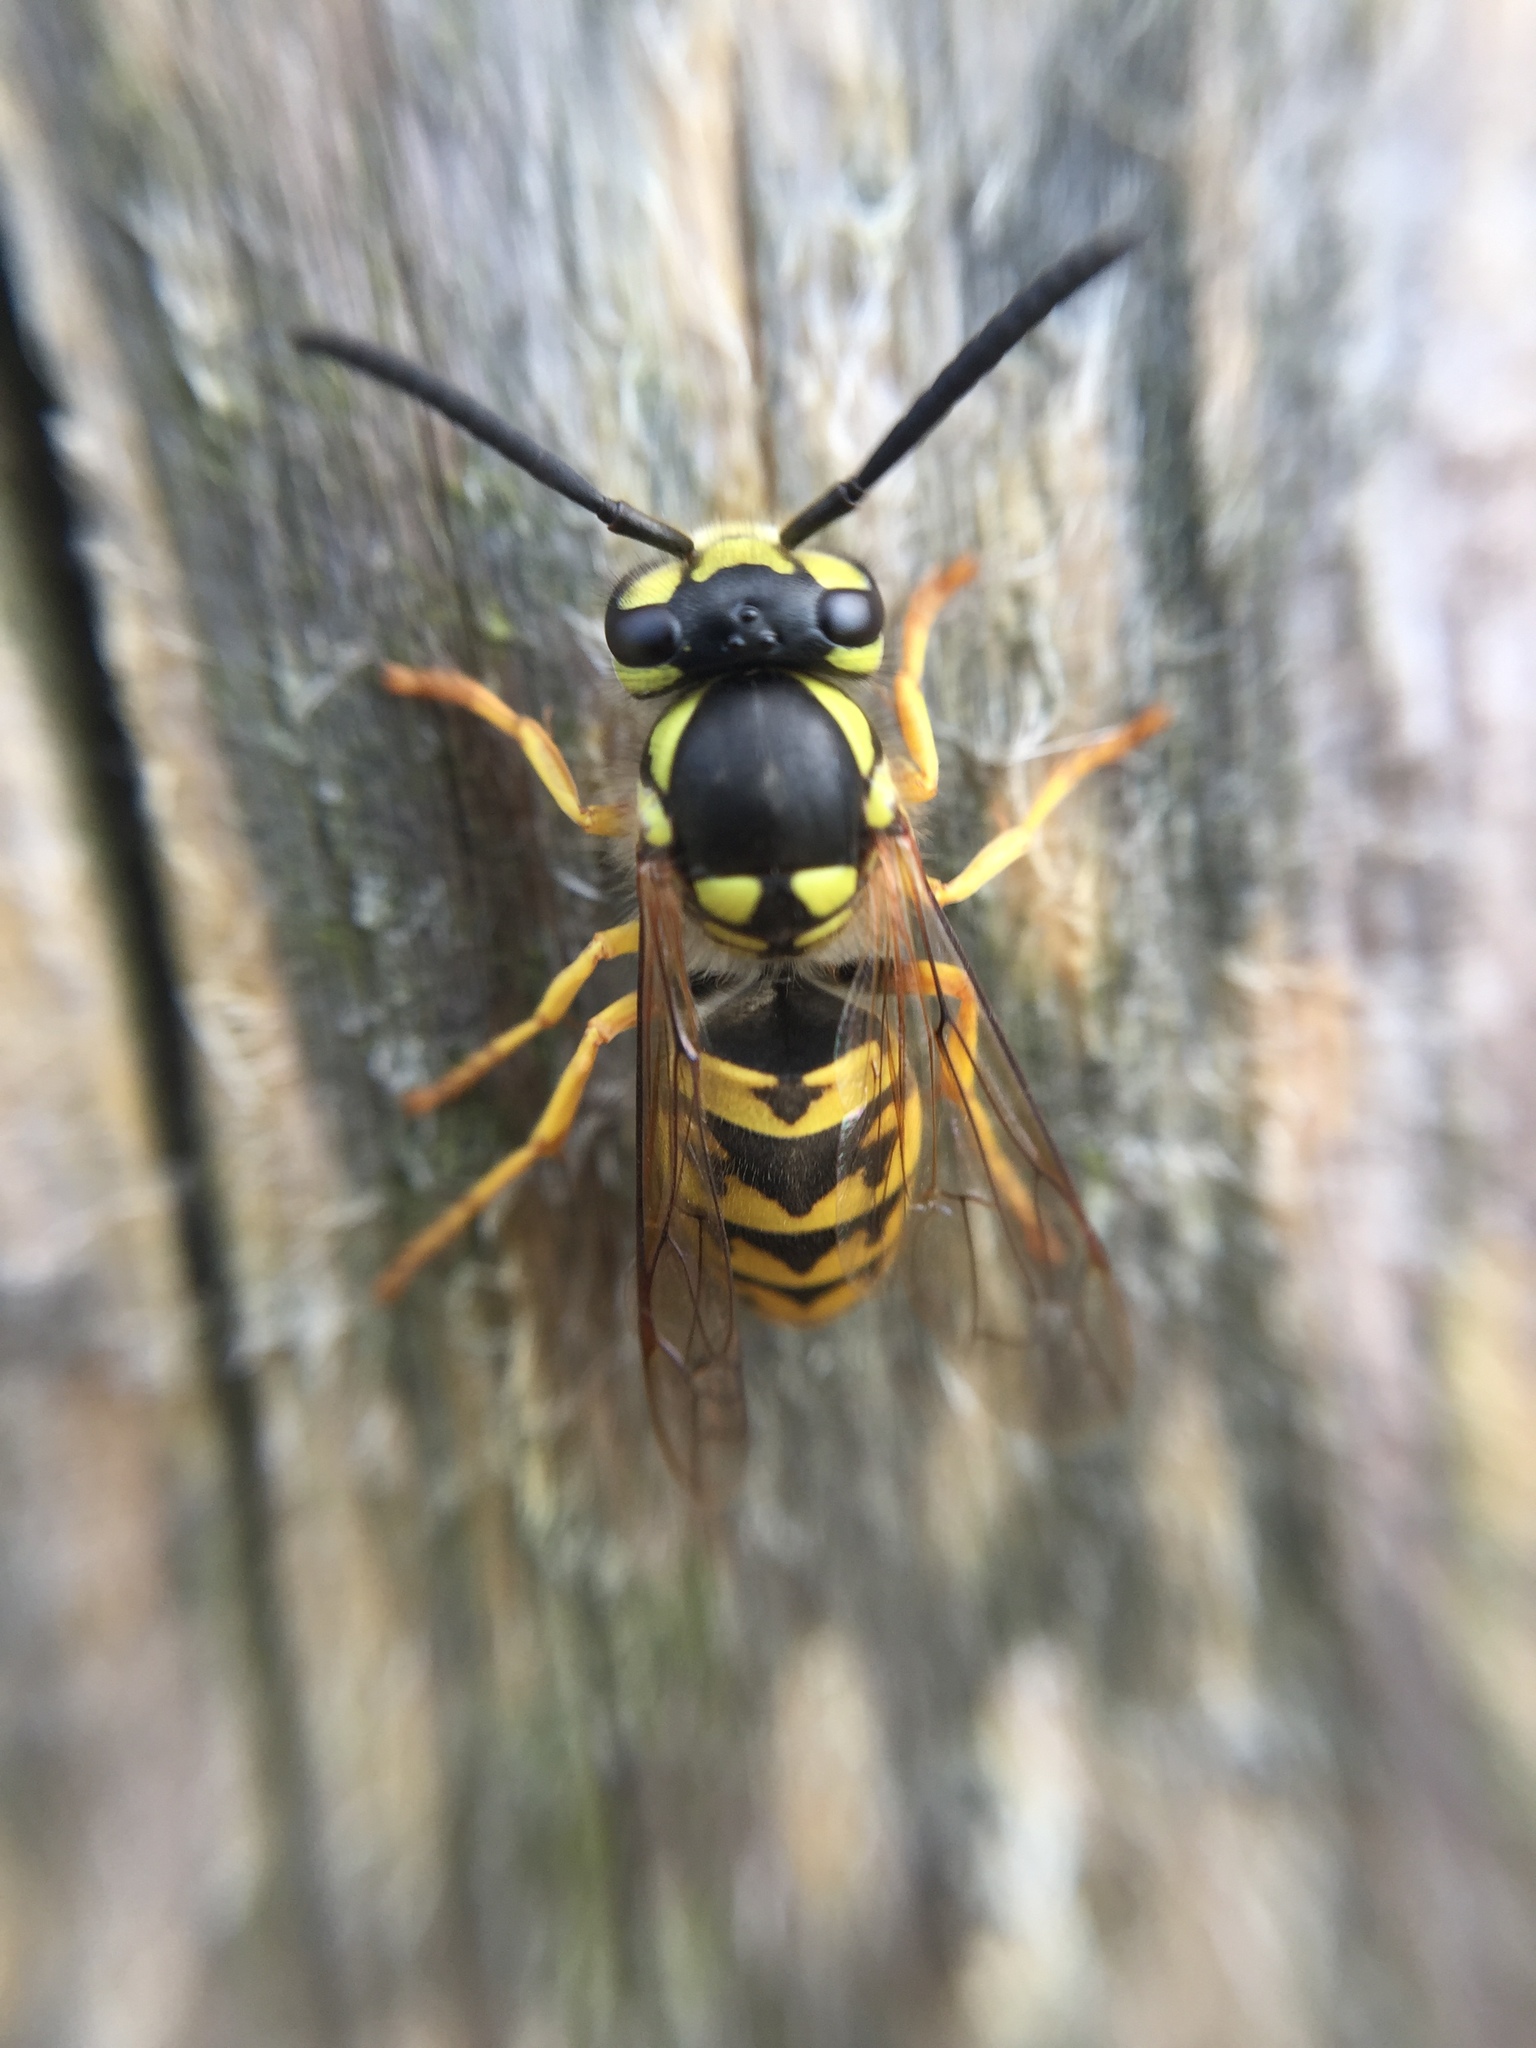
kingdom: Animalia
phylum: Arthropoda
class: Insecta
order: Hymenoptera
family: Vespidae
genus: Vespula
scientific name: Vespula germanica
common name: German wasp
